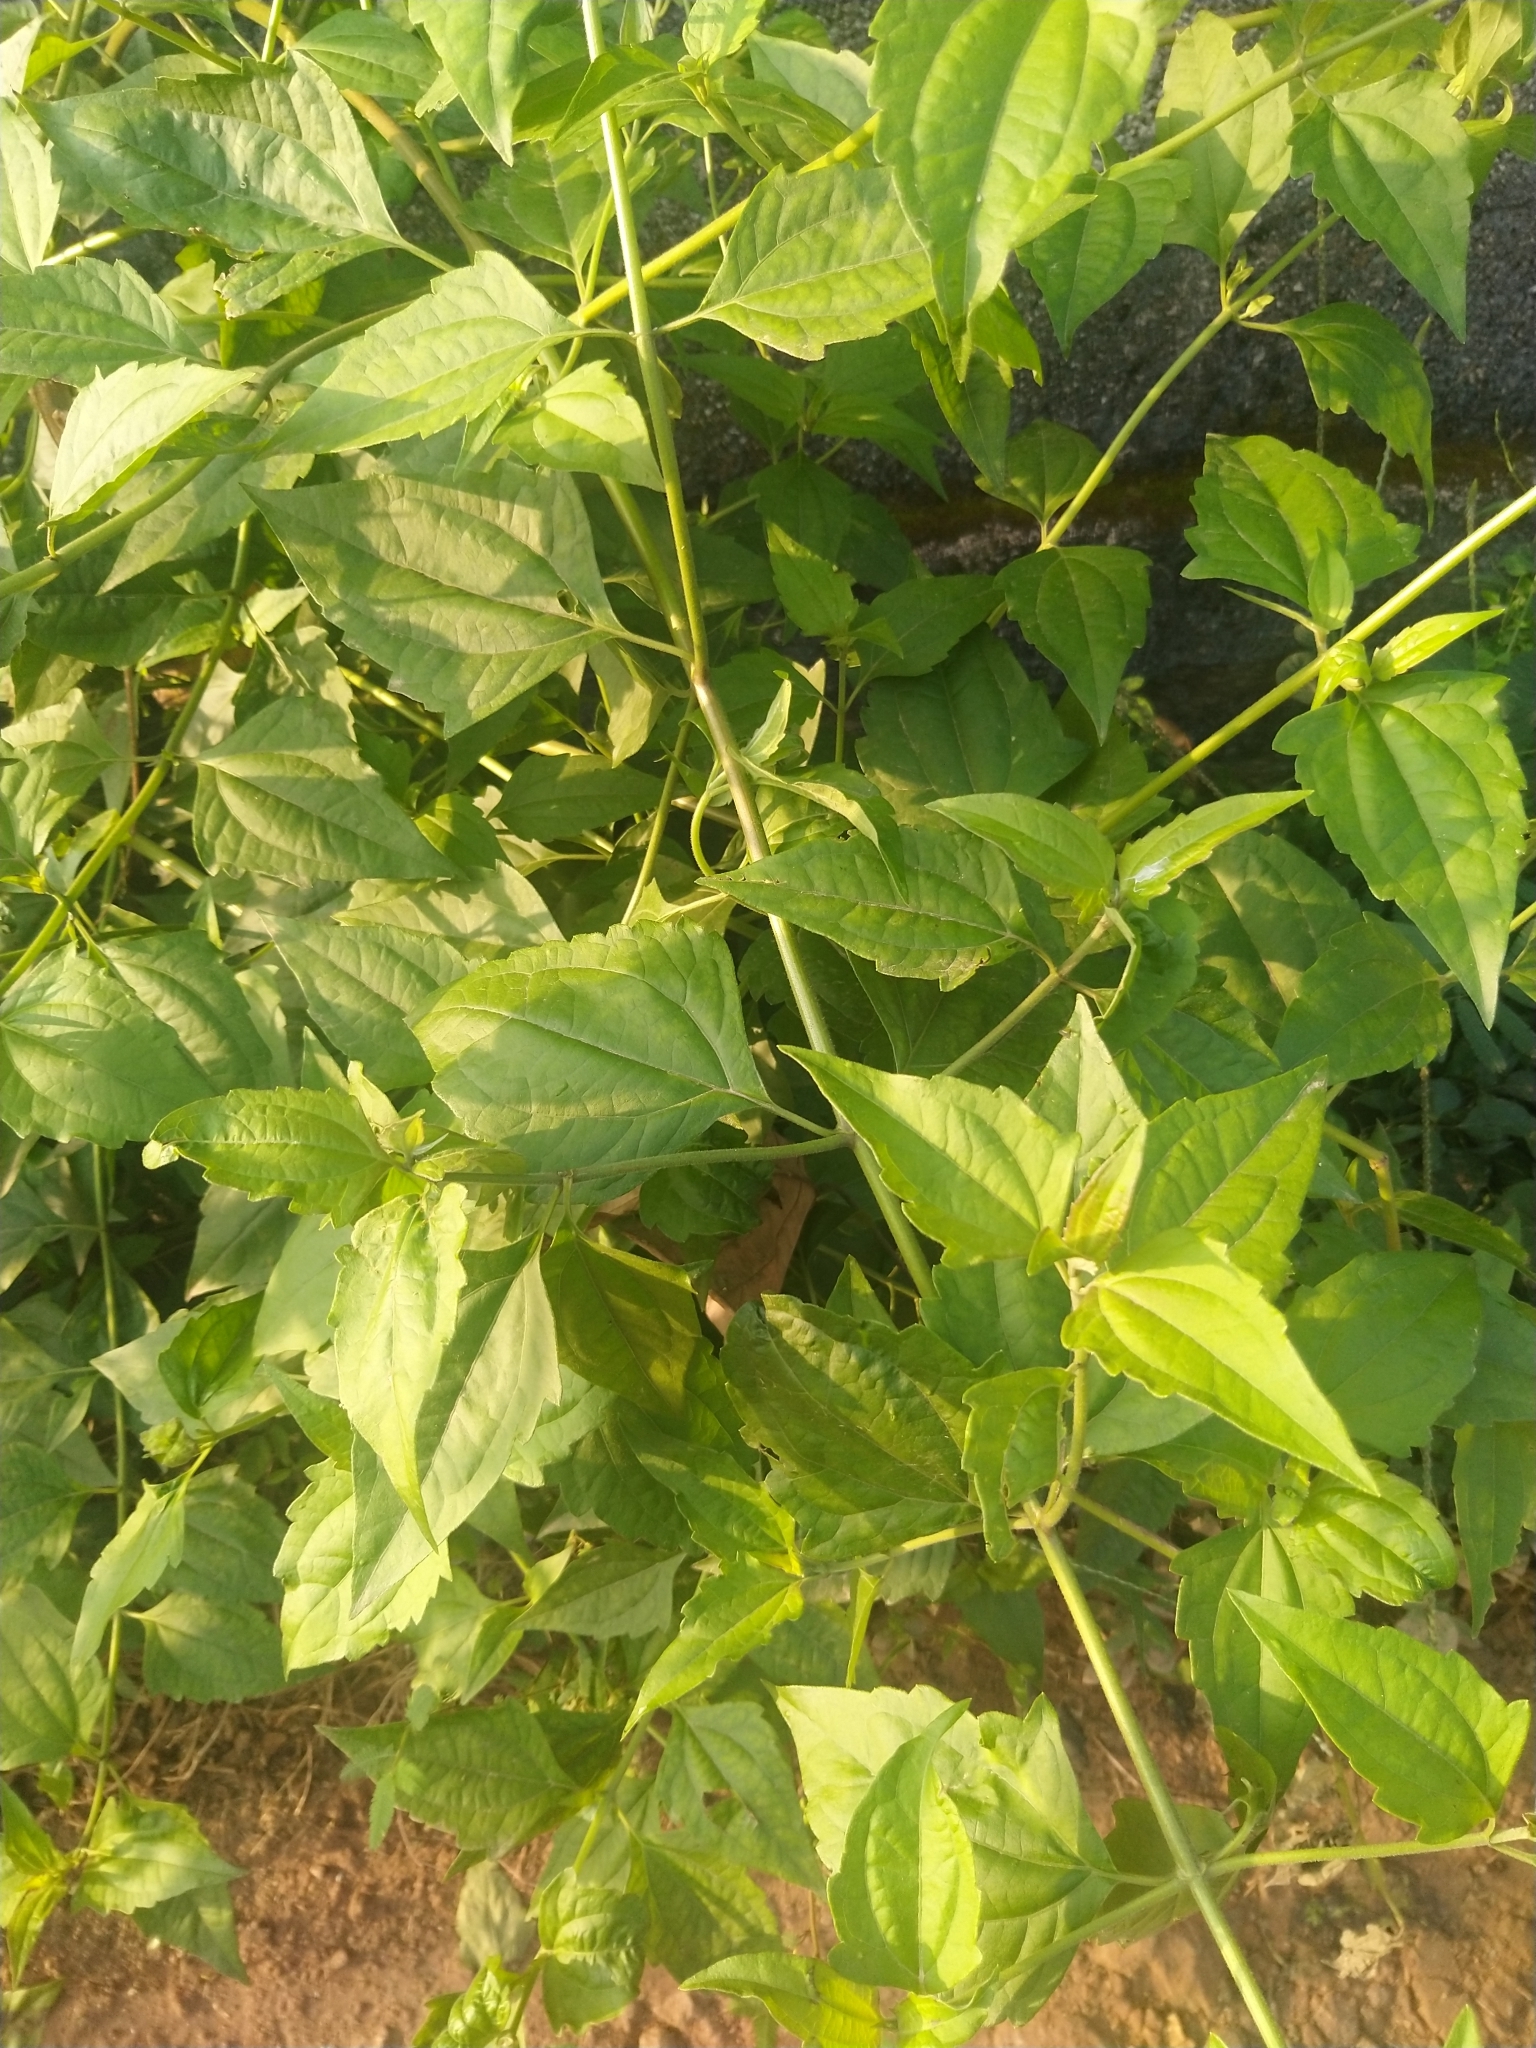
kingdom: Plantae
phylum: Tracheophyta
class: Magnoliopsida
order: Asterales
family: Asteraceae
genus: Chromolaena
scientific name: Chromolaena odorata
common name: Siamweed
